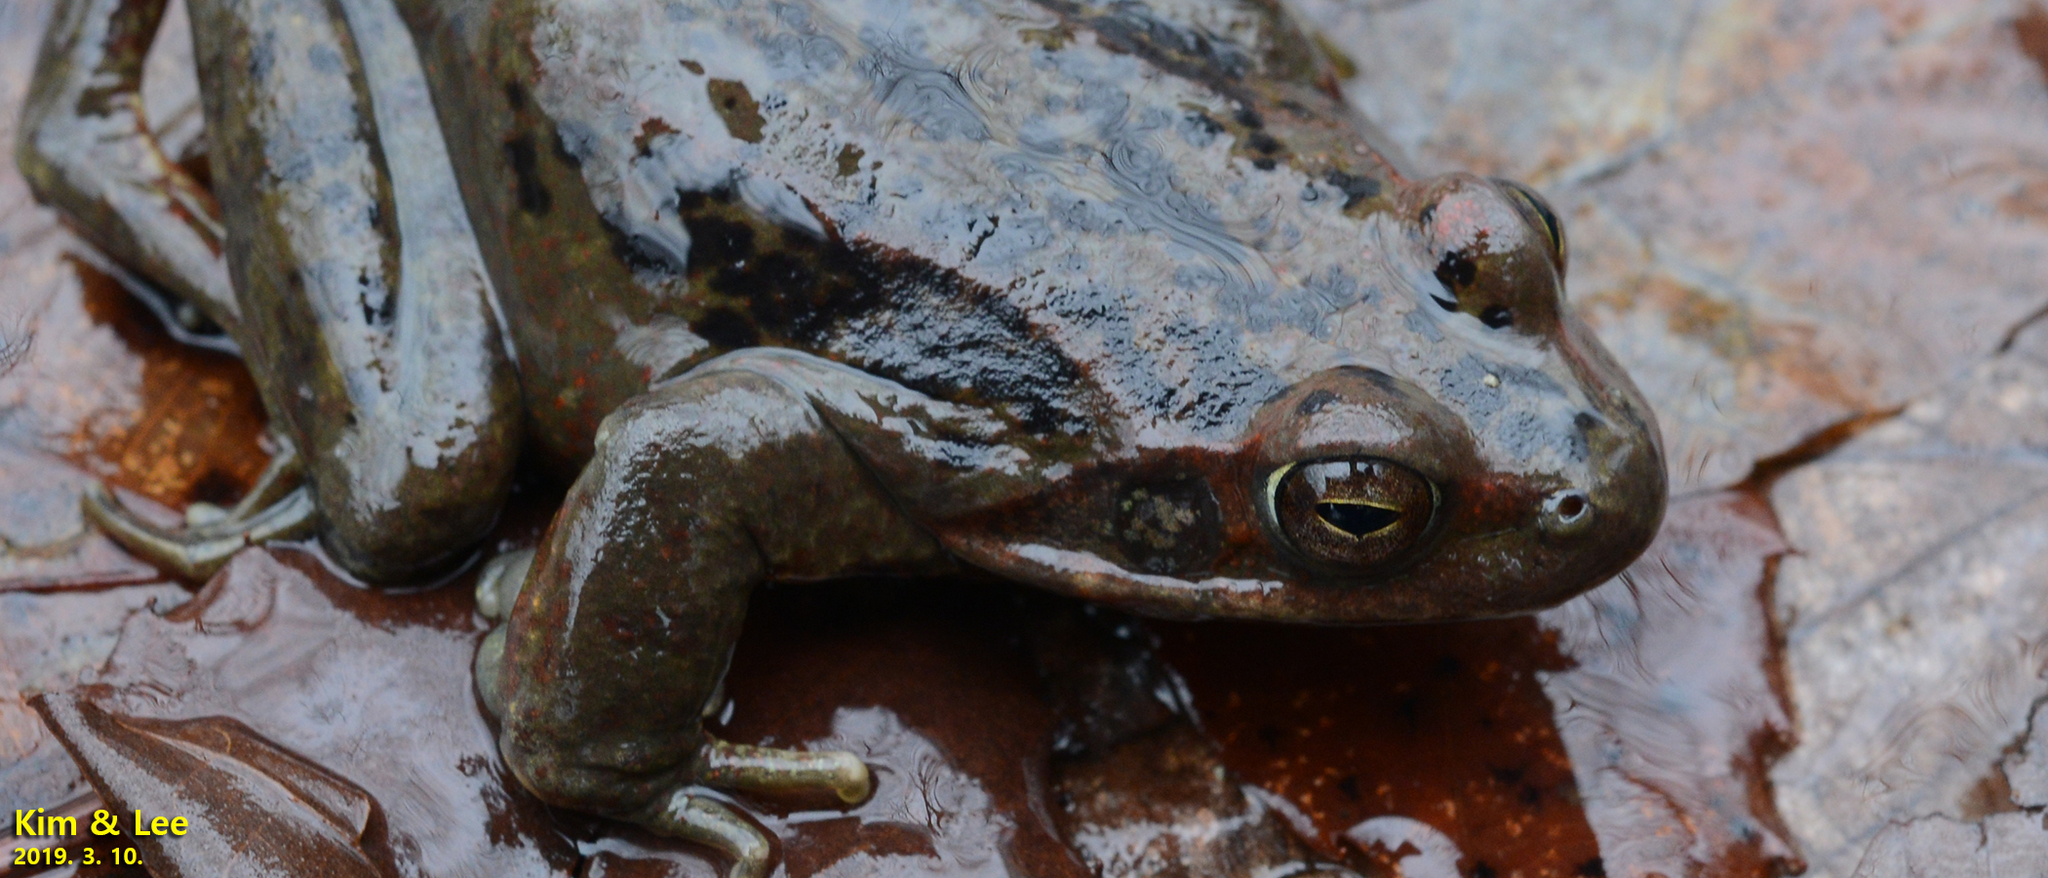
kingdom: Animalia
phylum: Chordata
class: Amphibia
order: Anura
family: Ranidae
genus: Rana
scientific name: Rana dybowskii
